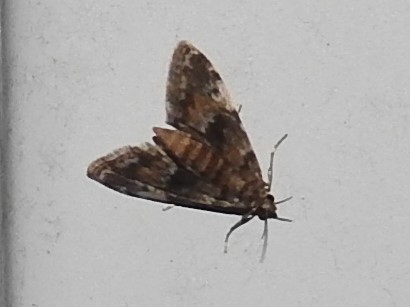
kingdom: Animalia
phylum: Arthropoda
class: Insecta
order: Lepidoptera
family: Crambidae
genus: Elophila
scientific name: Elophila obliteralis
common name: Waterlily leafcutter moth
